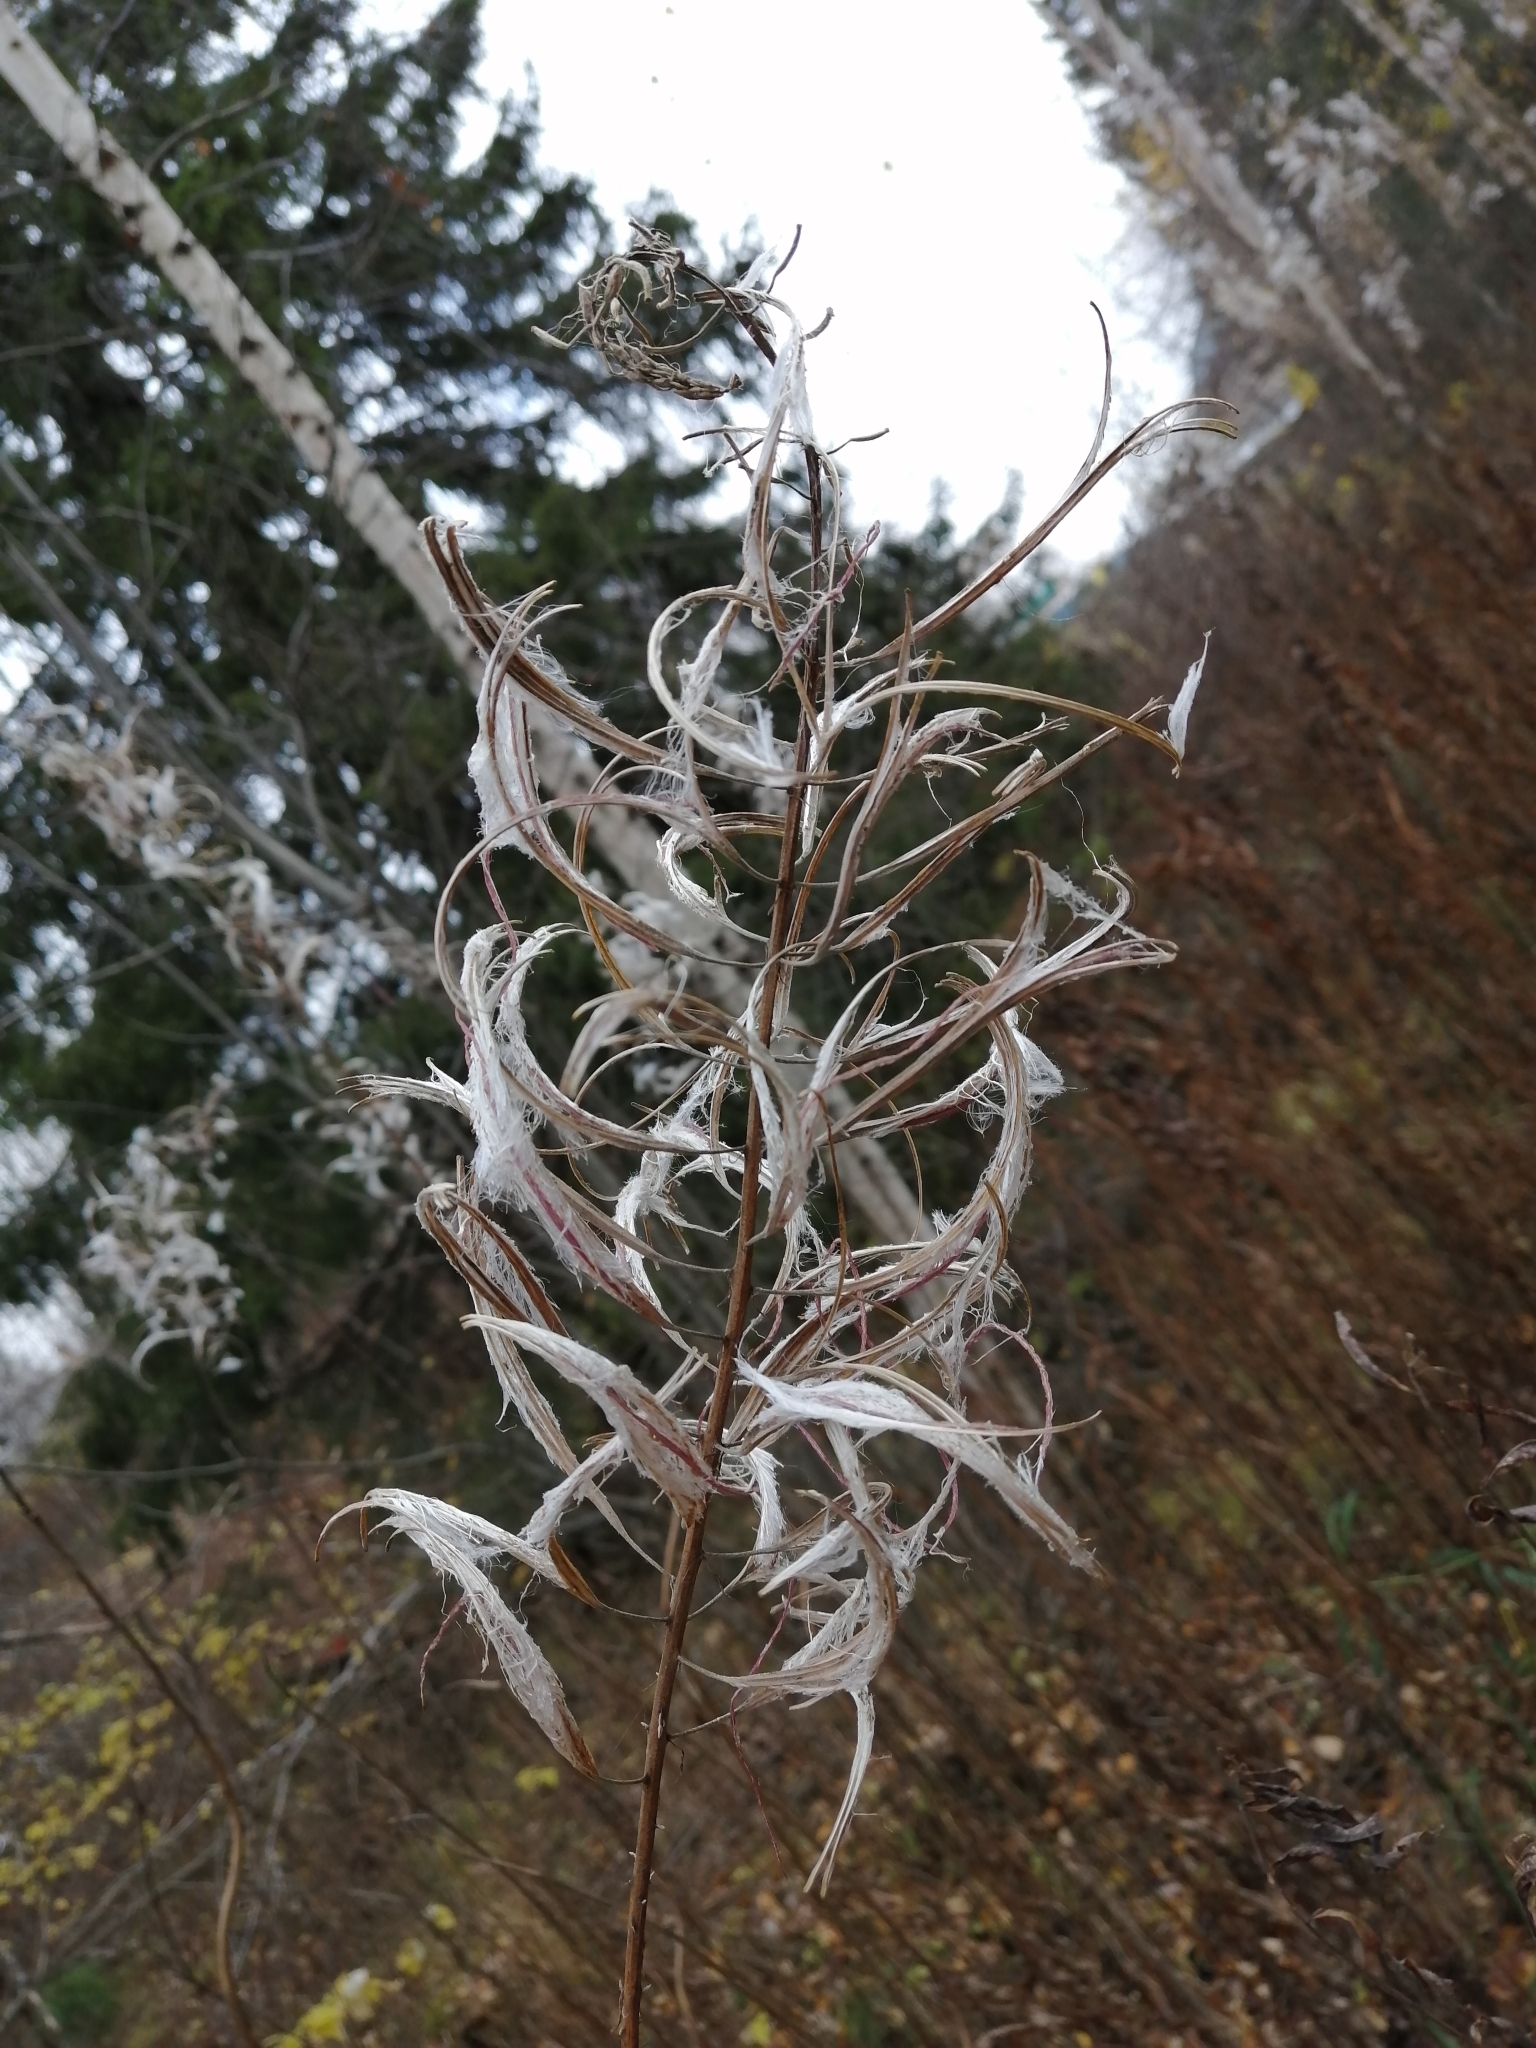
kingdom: Plantae
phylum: Tracheophyta
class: Magnoliopsida
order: Myrtales
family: Onagraceae
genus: Chamaenerion
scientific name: Chamaenerion angustifolium
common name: Fireweed
